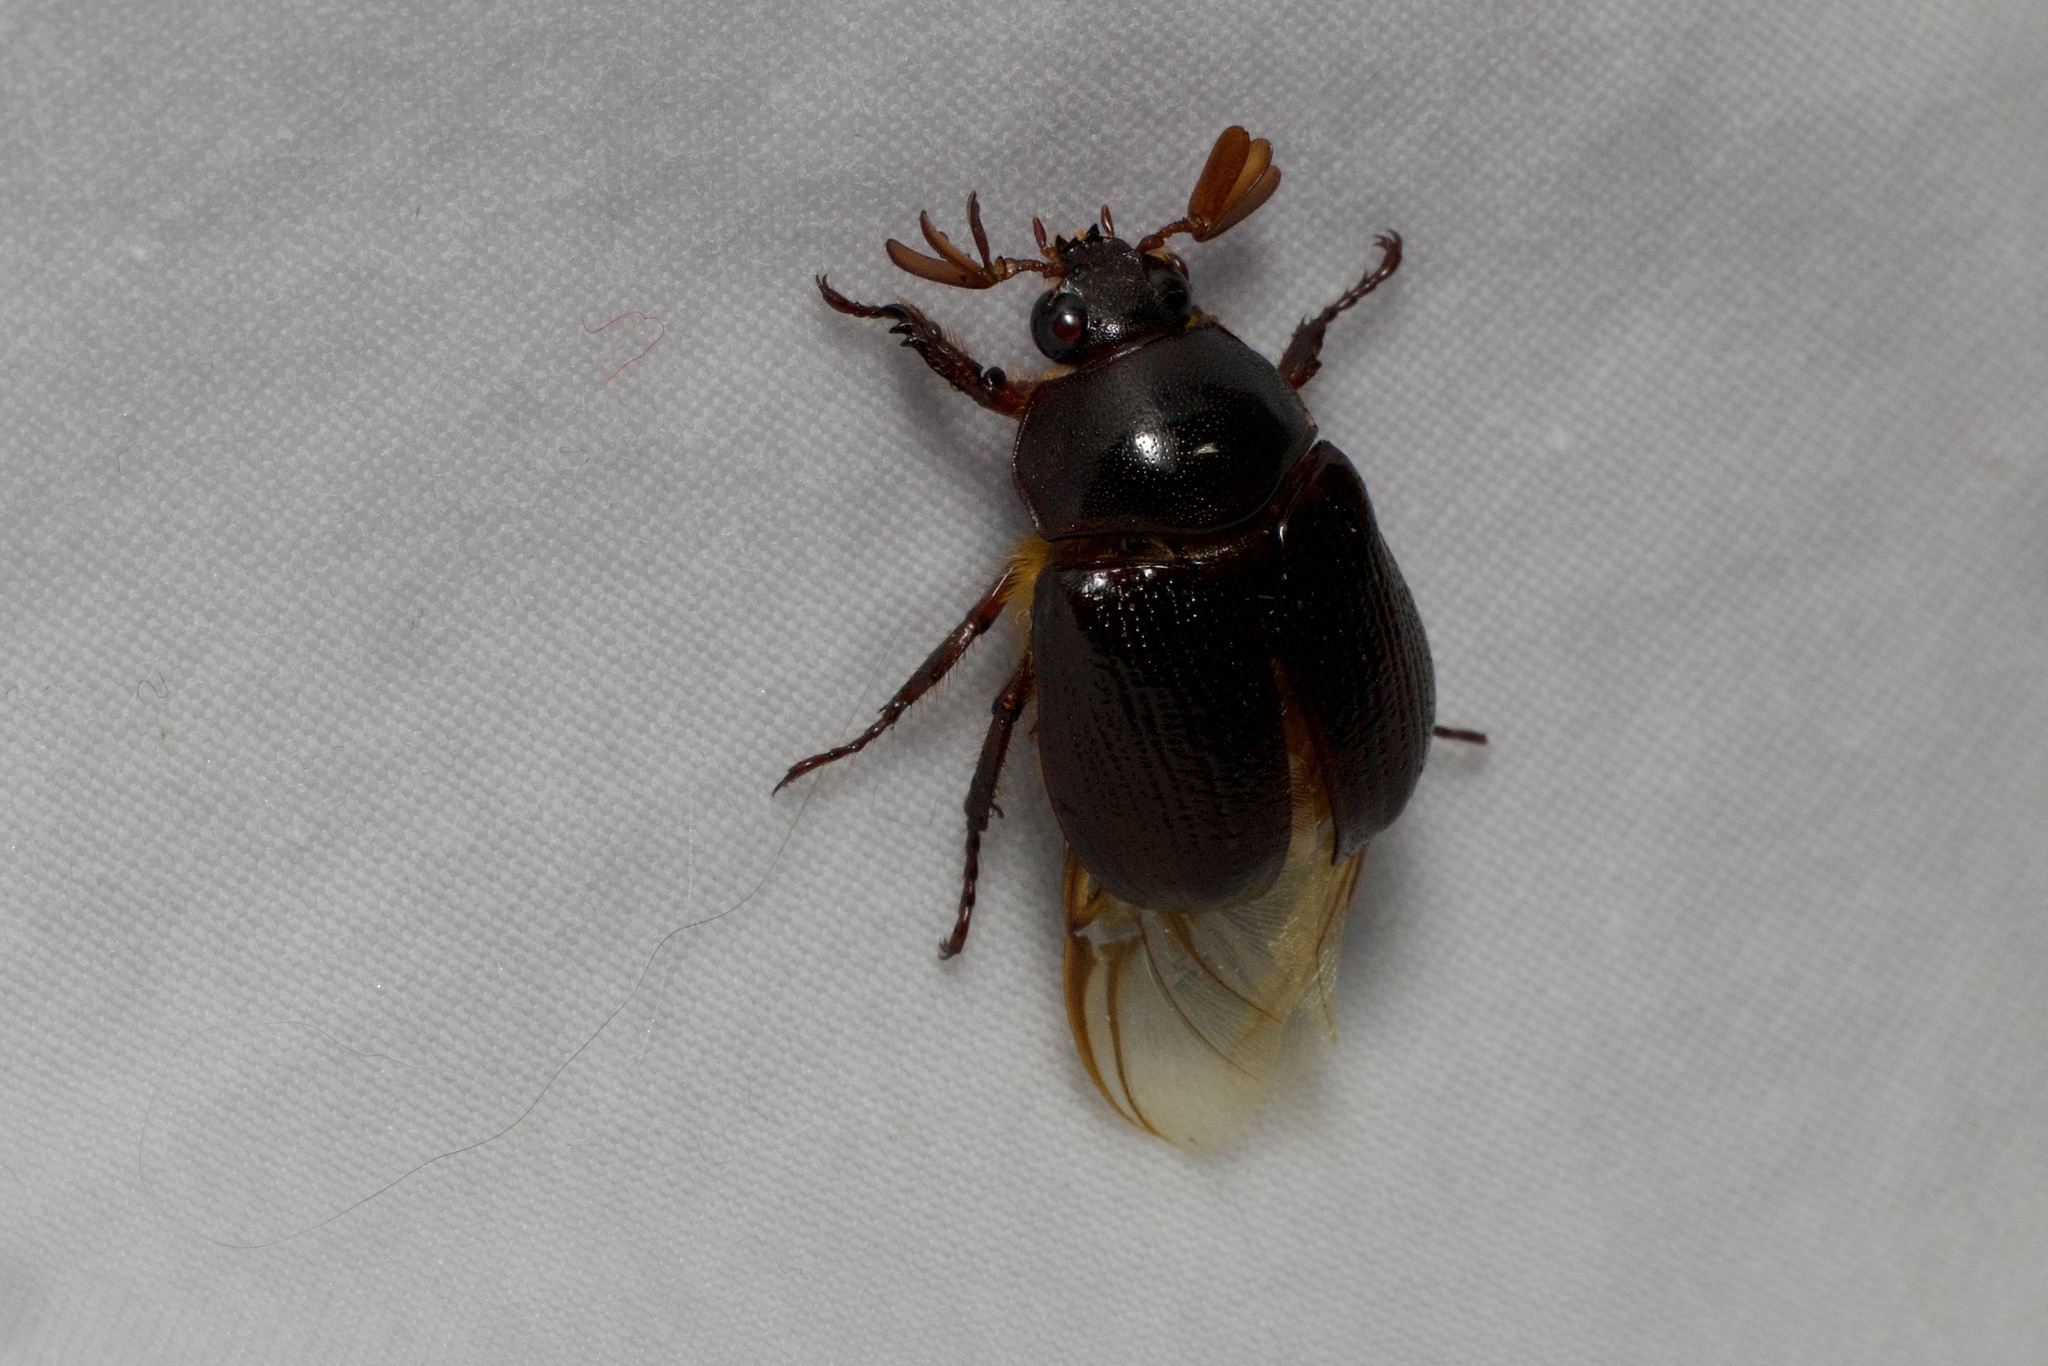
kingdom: Animalia
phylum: Arthropoda
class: Insecta
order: Coleoptera
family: Scarabaeidae
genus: Parastasia
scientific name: Parastasia brevipes
